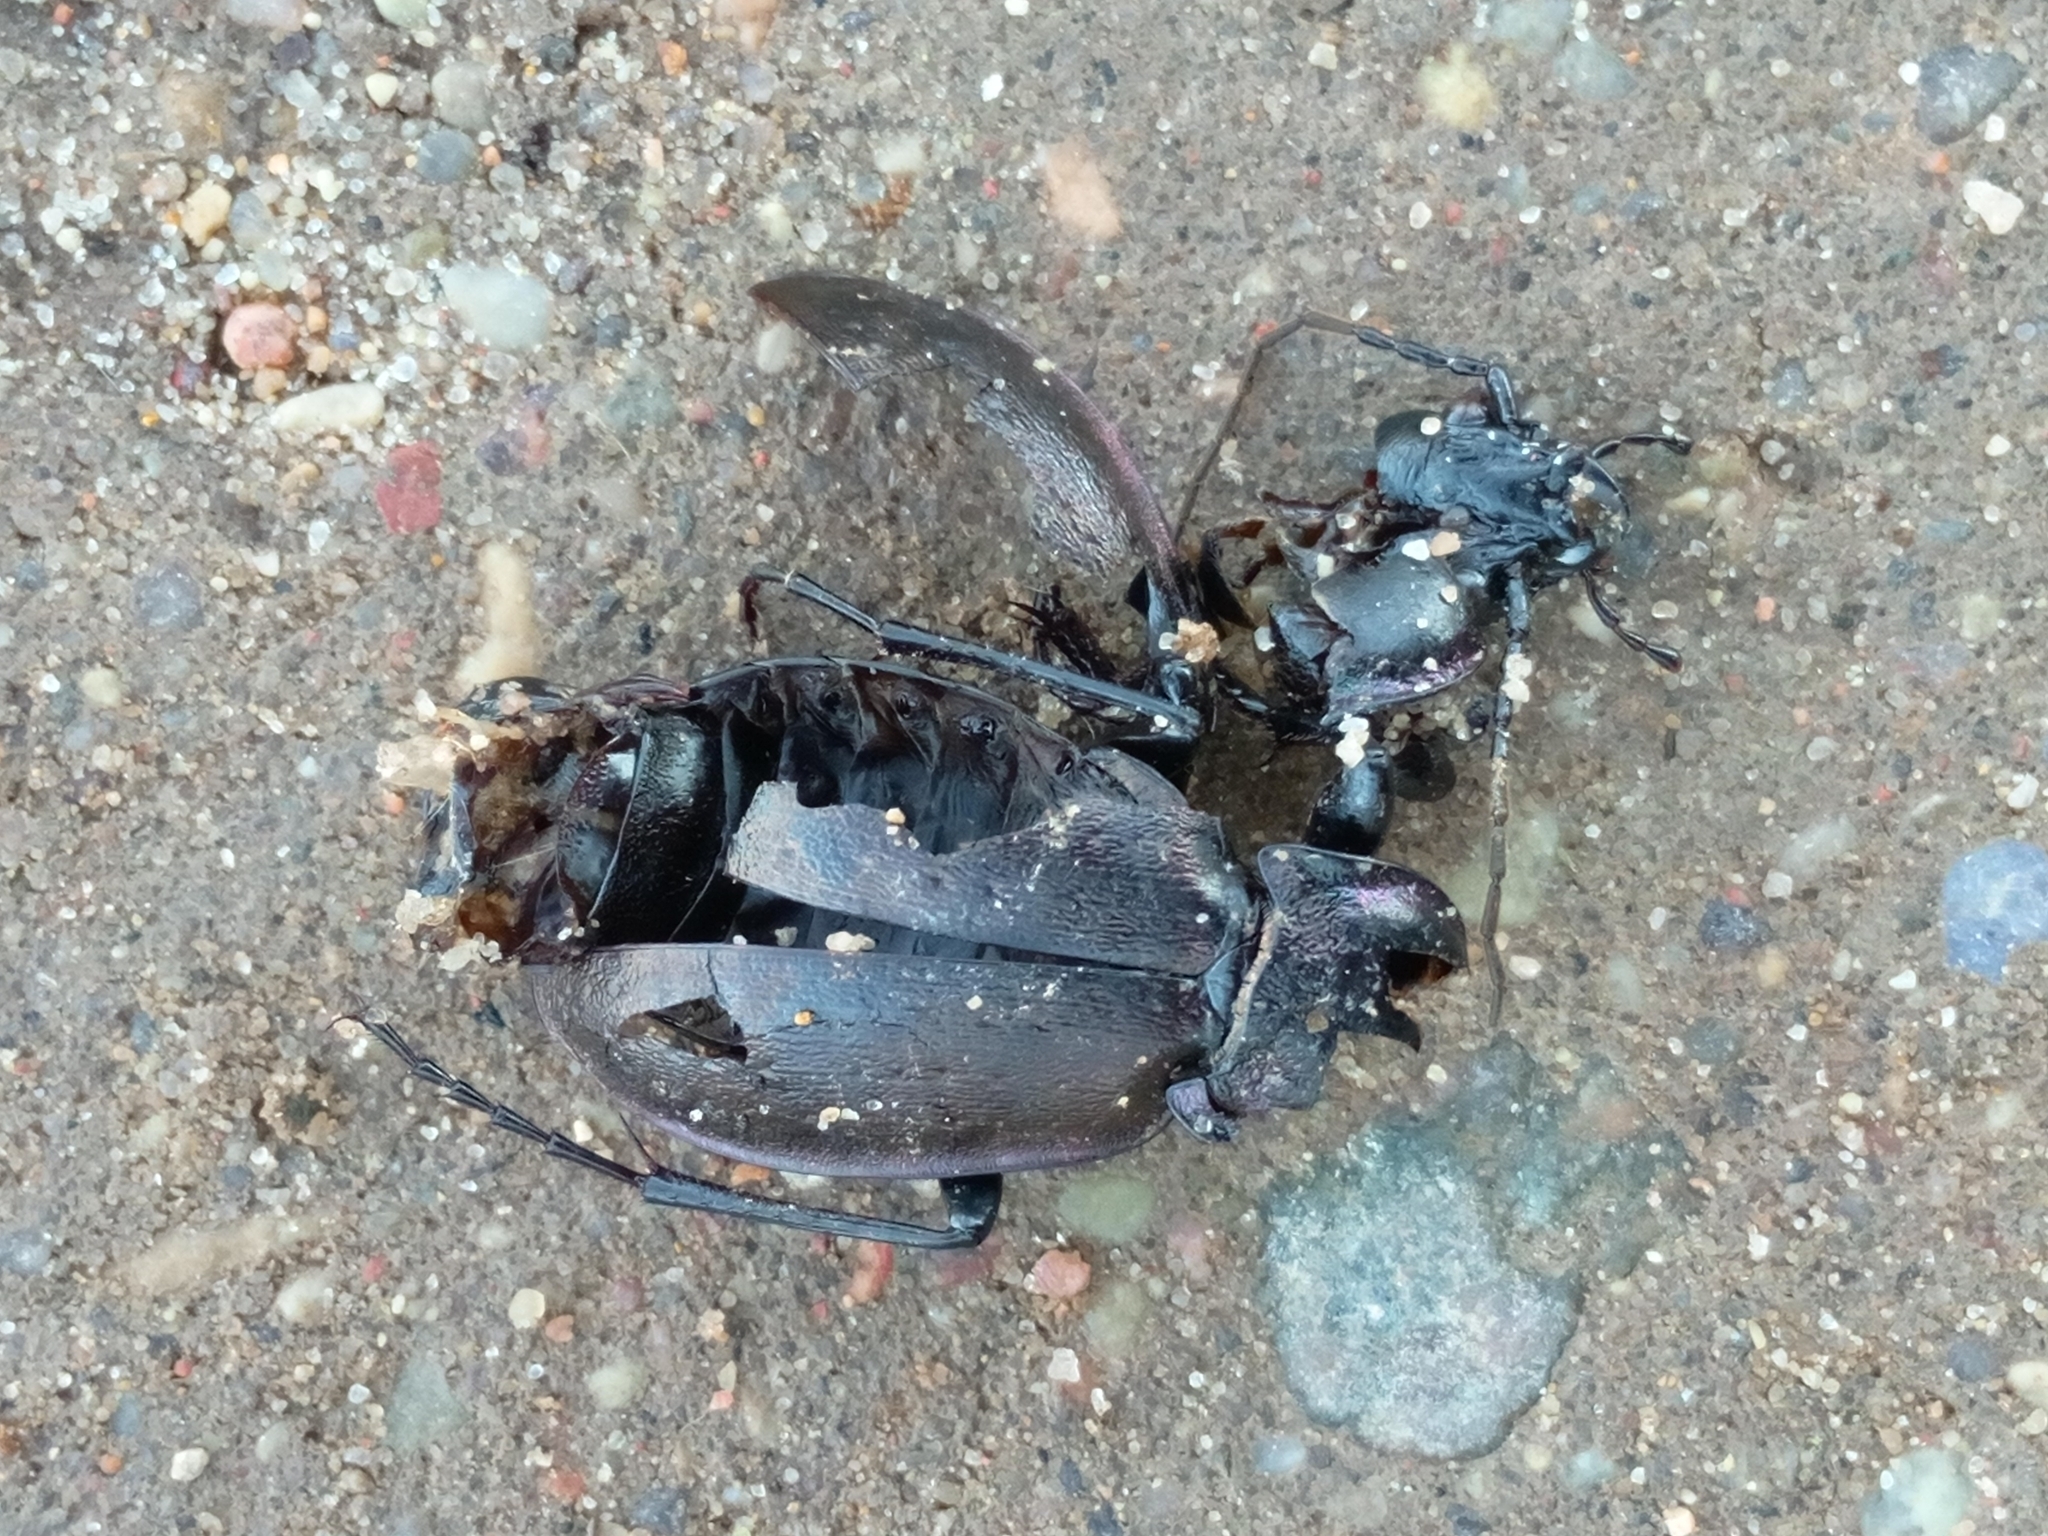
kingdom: Animalia
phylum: Arthropoda
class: Insecta
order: Coleoptera
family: Carabidae
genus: Carabus
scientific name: Carabus nemoralis
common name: European ground beetle
